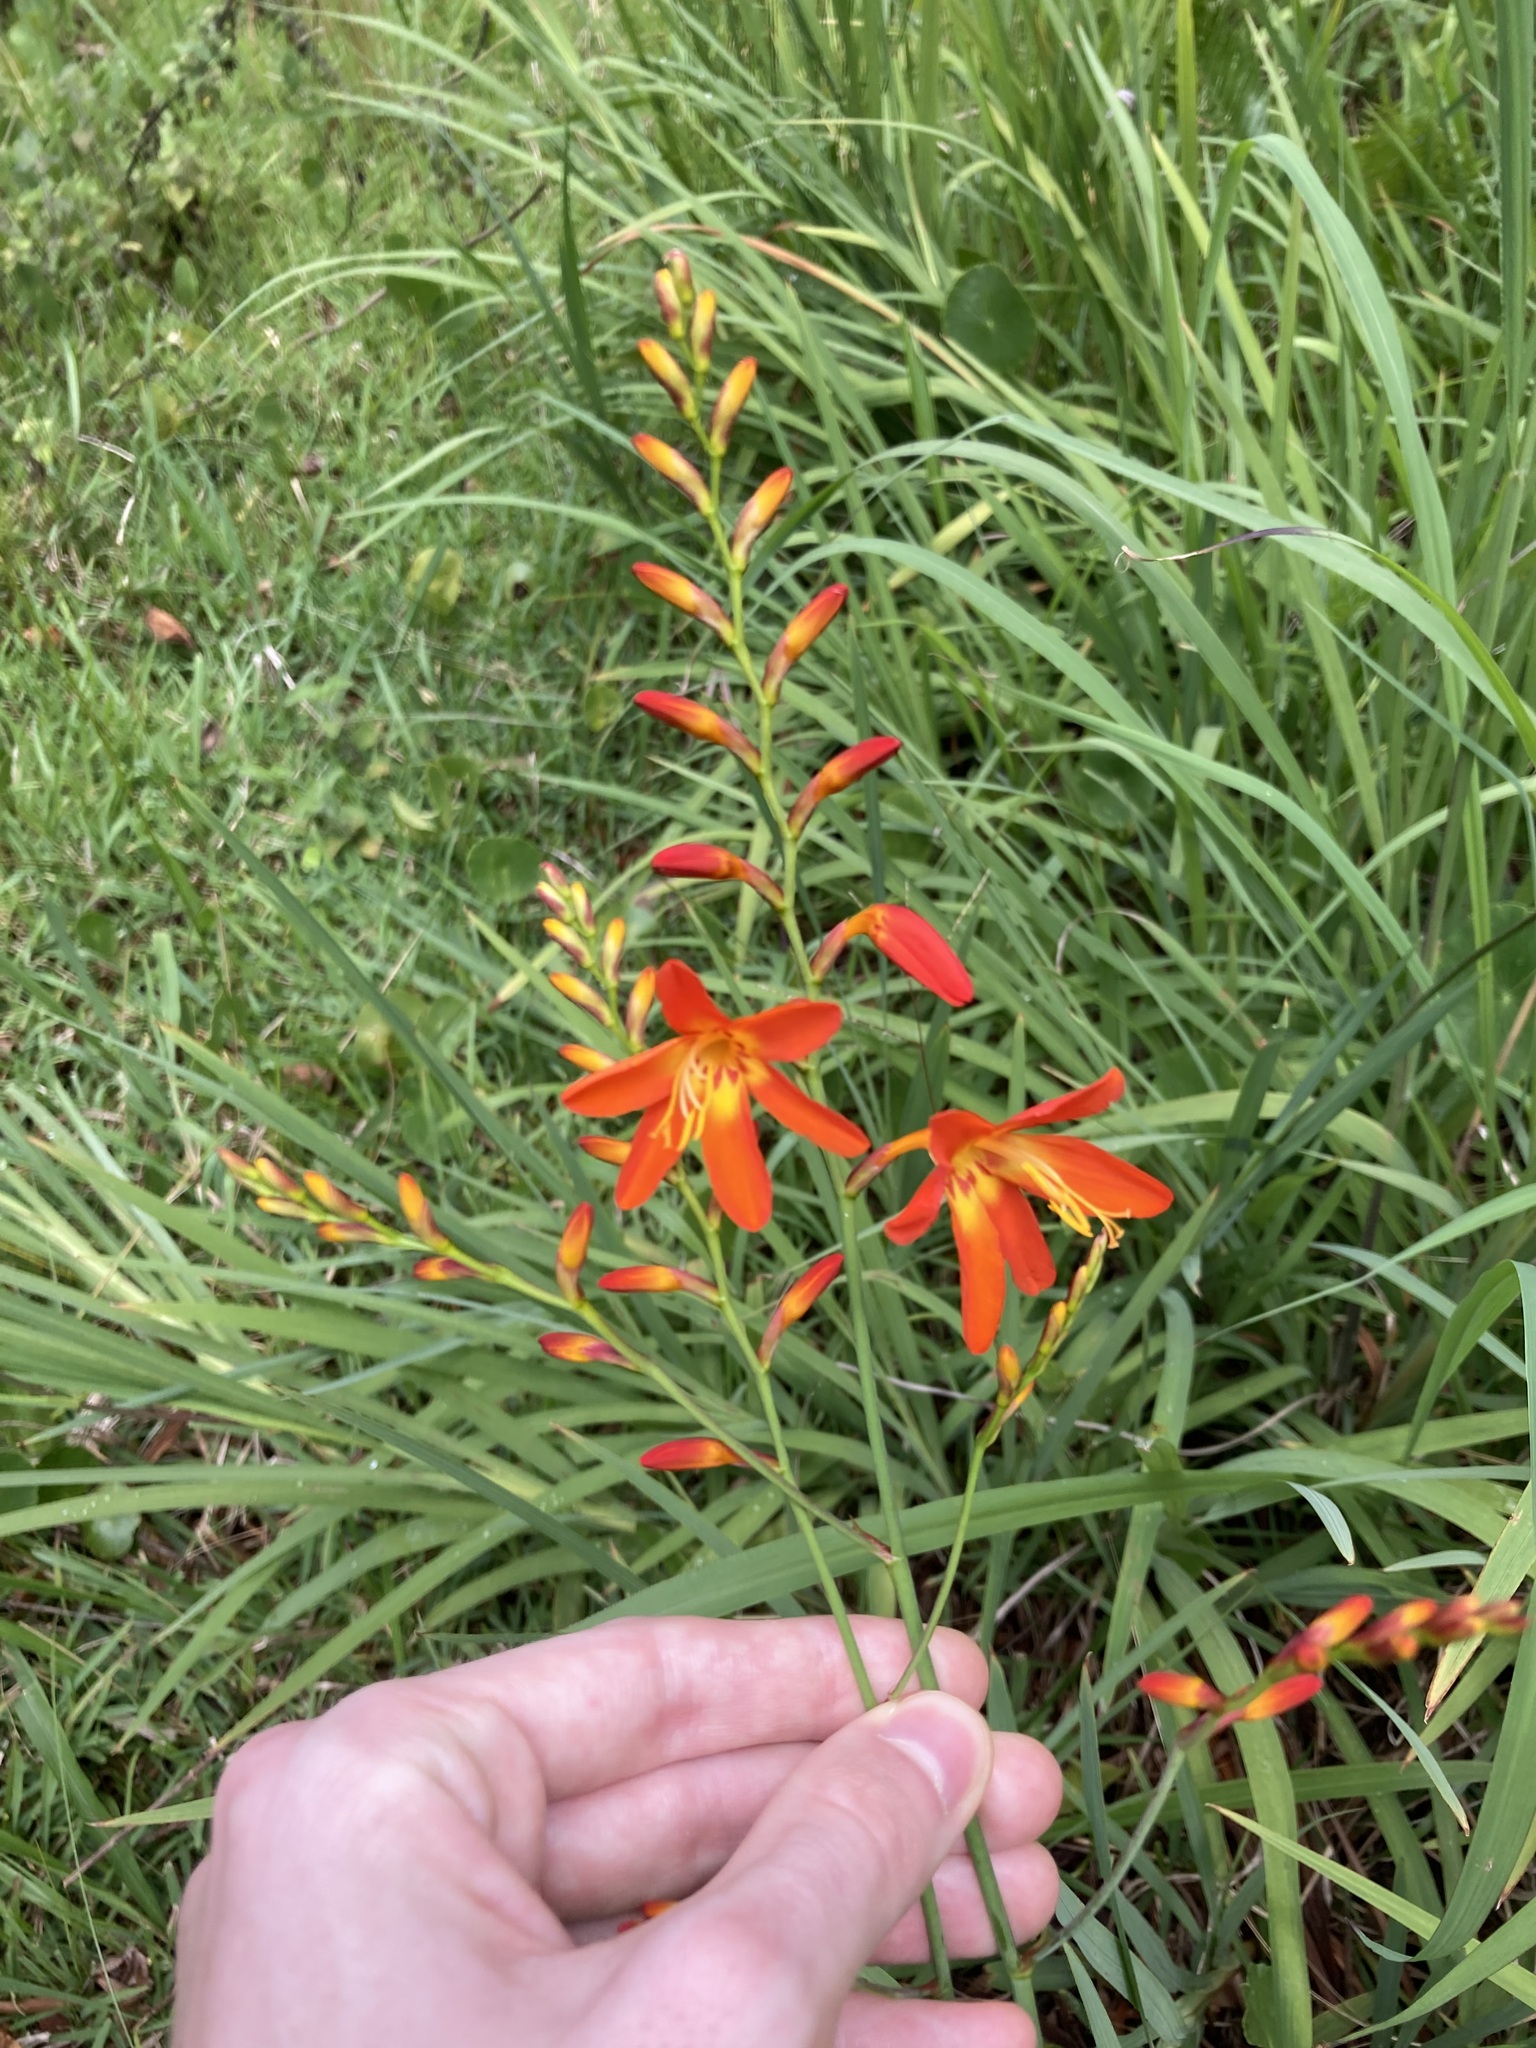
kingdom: Plantae
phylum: Tracheophyta
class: Liliopsida
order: Asparagales
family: Iridaceae
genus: Crocosmia
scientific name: Crocosmia crocosmiiflora
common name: Montbretia
